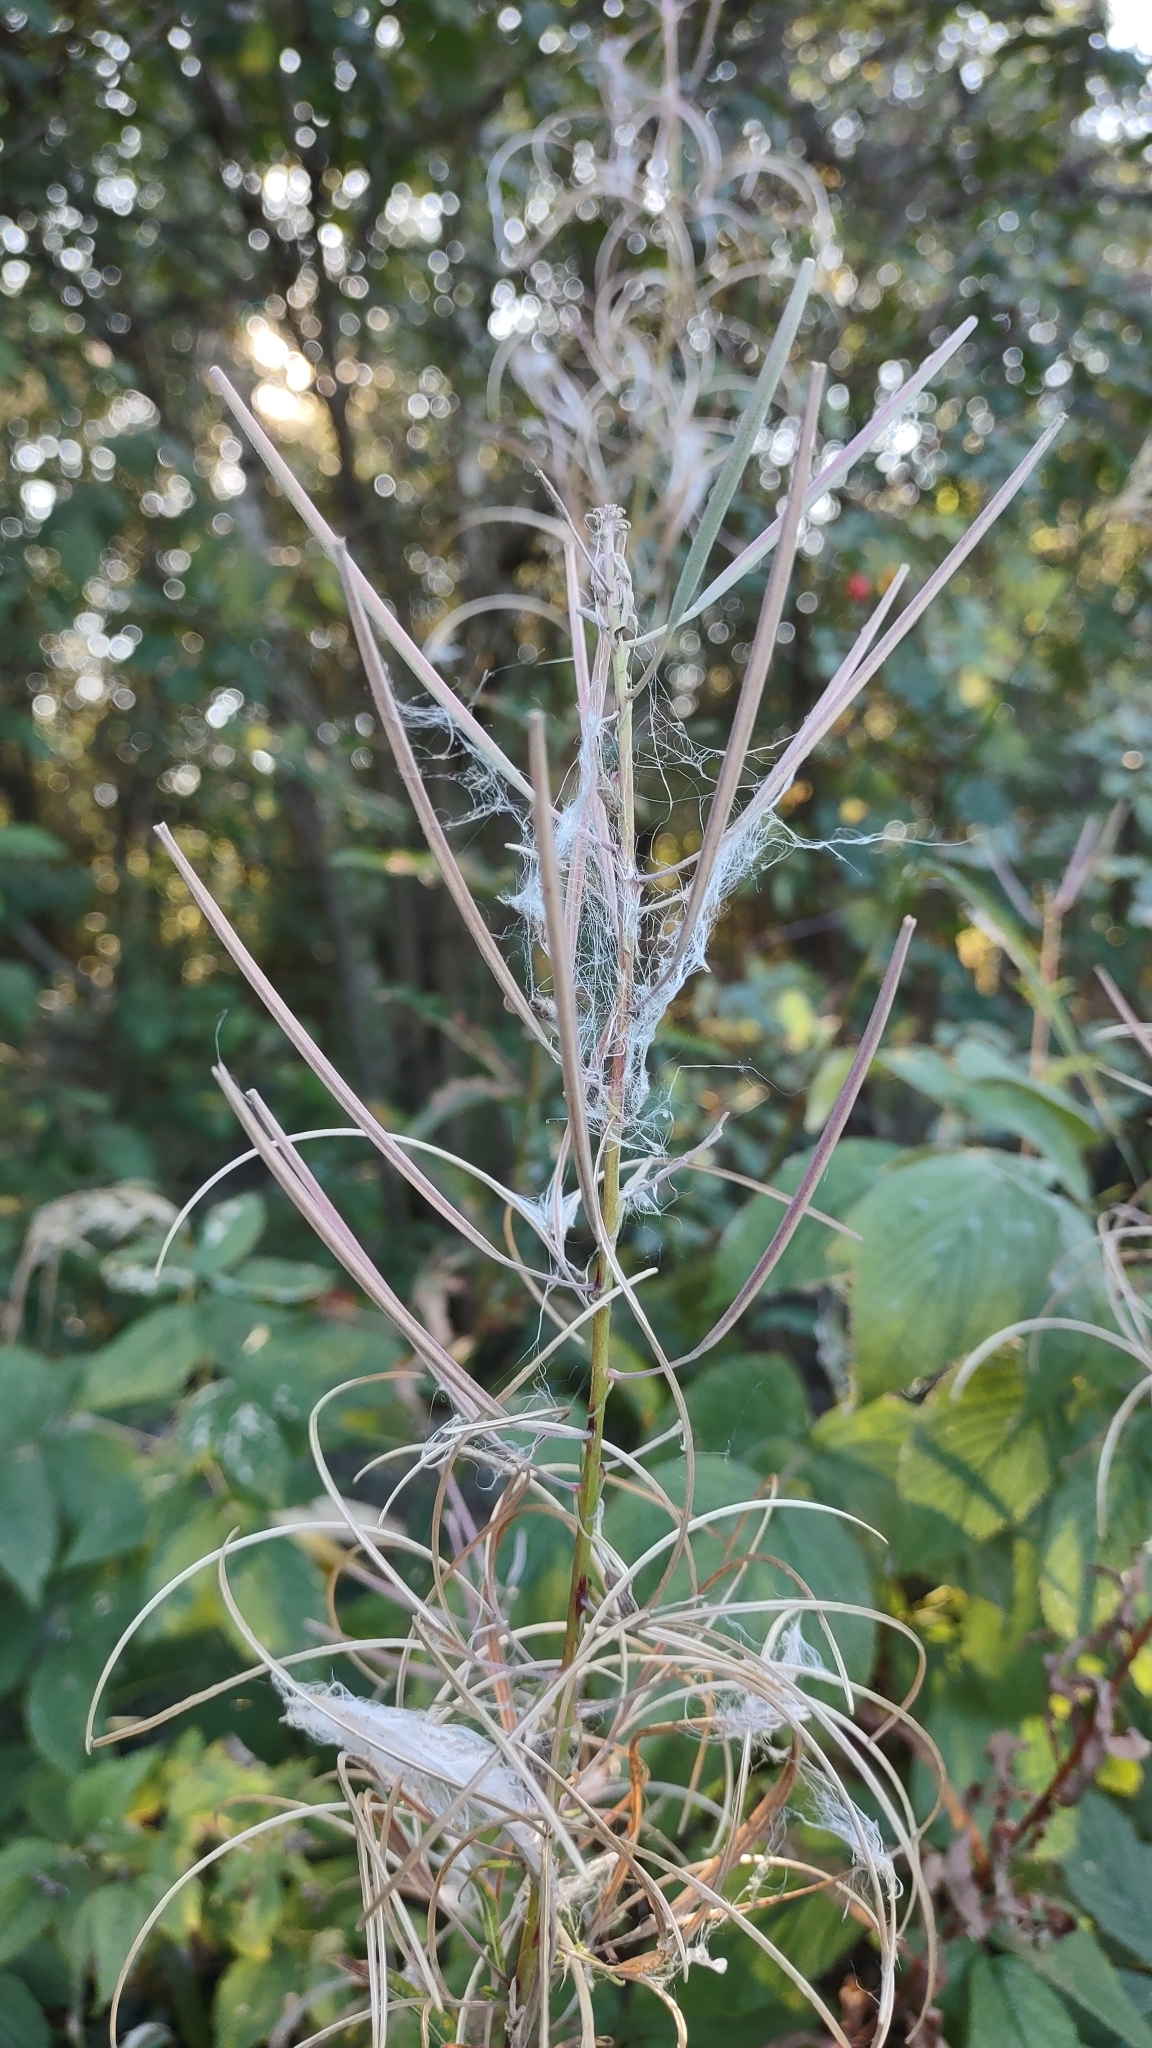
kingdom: Plantae
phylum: Tracheophyta
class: Magnoliopsida
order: Myrtales
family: Onagraceae
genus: Chamaenerion
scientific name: Chamaenerion angustifolium
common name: Fireweed
